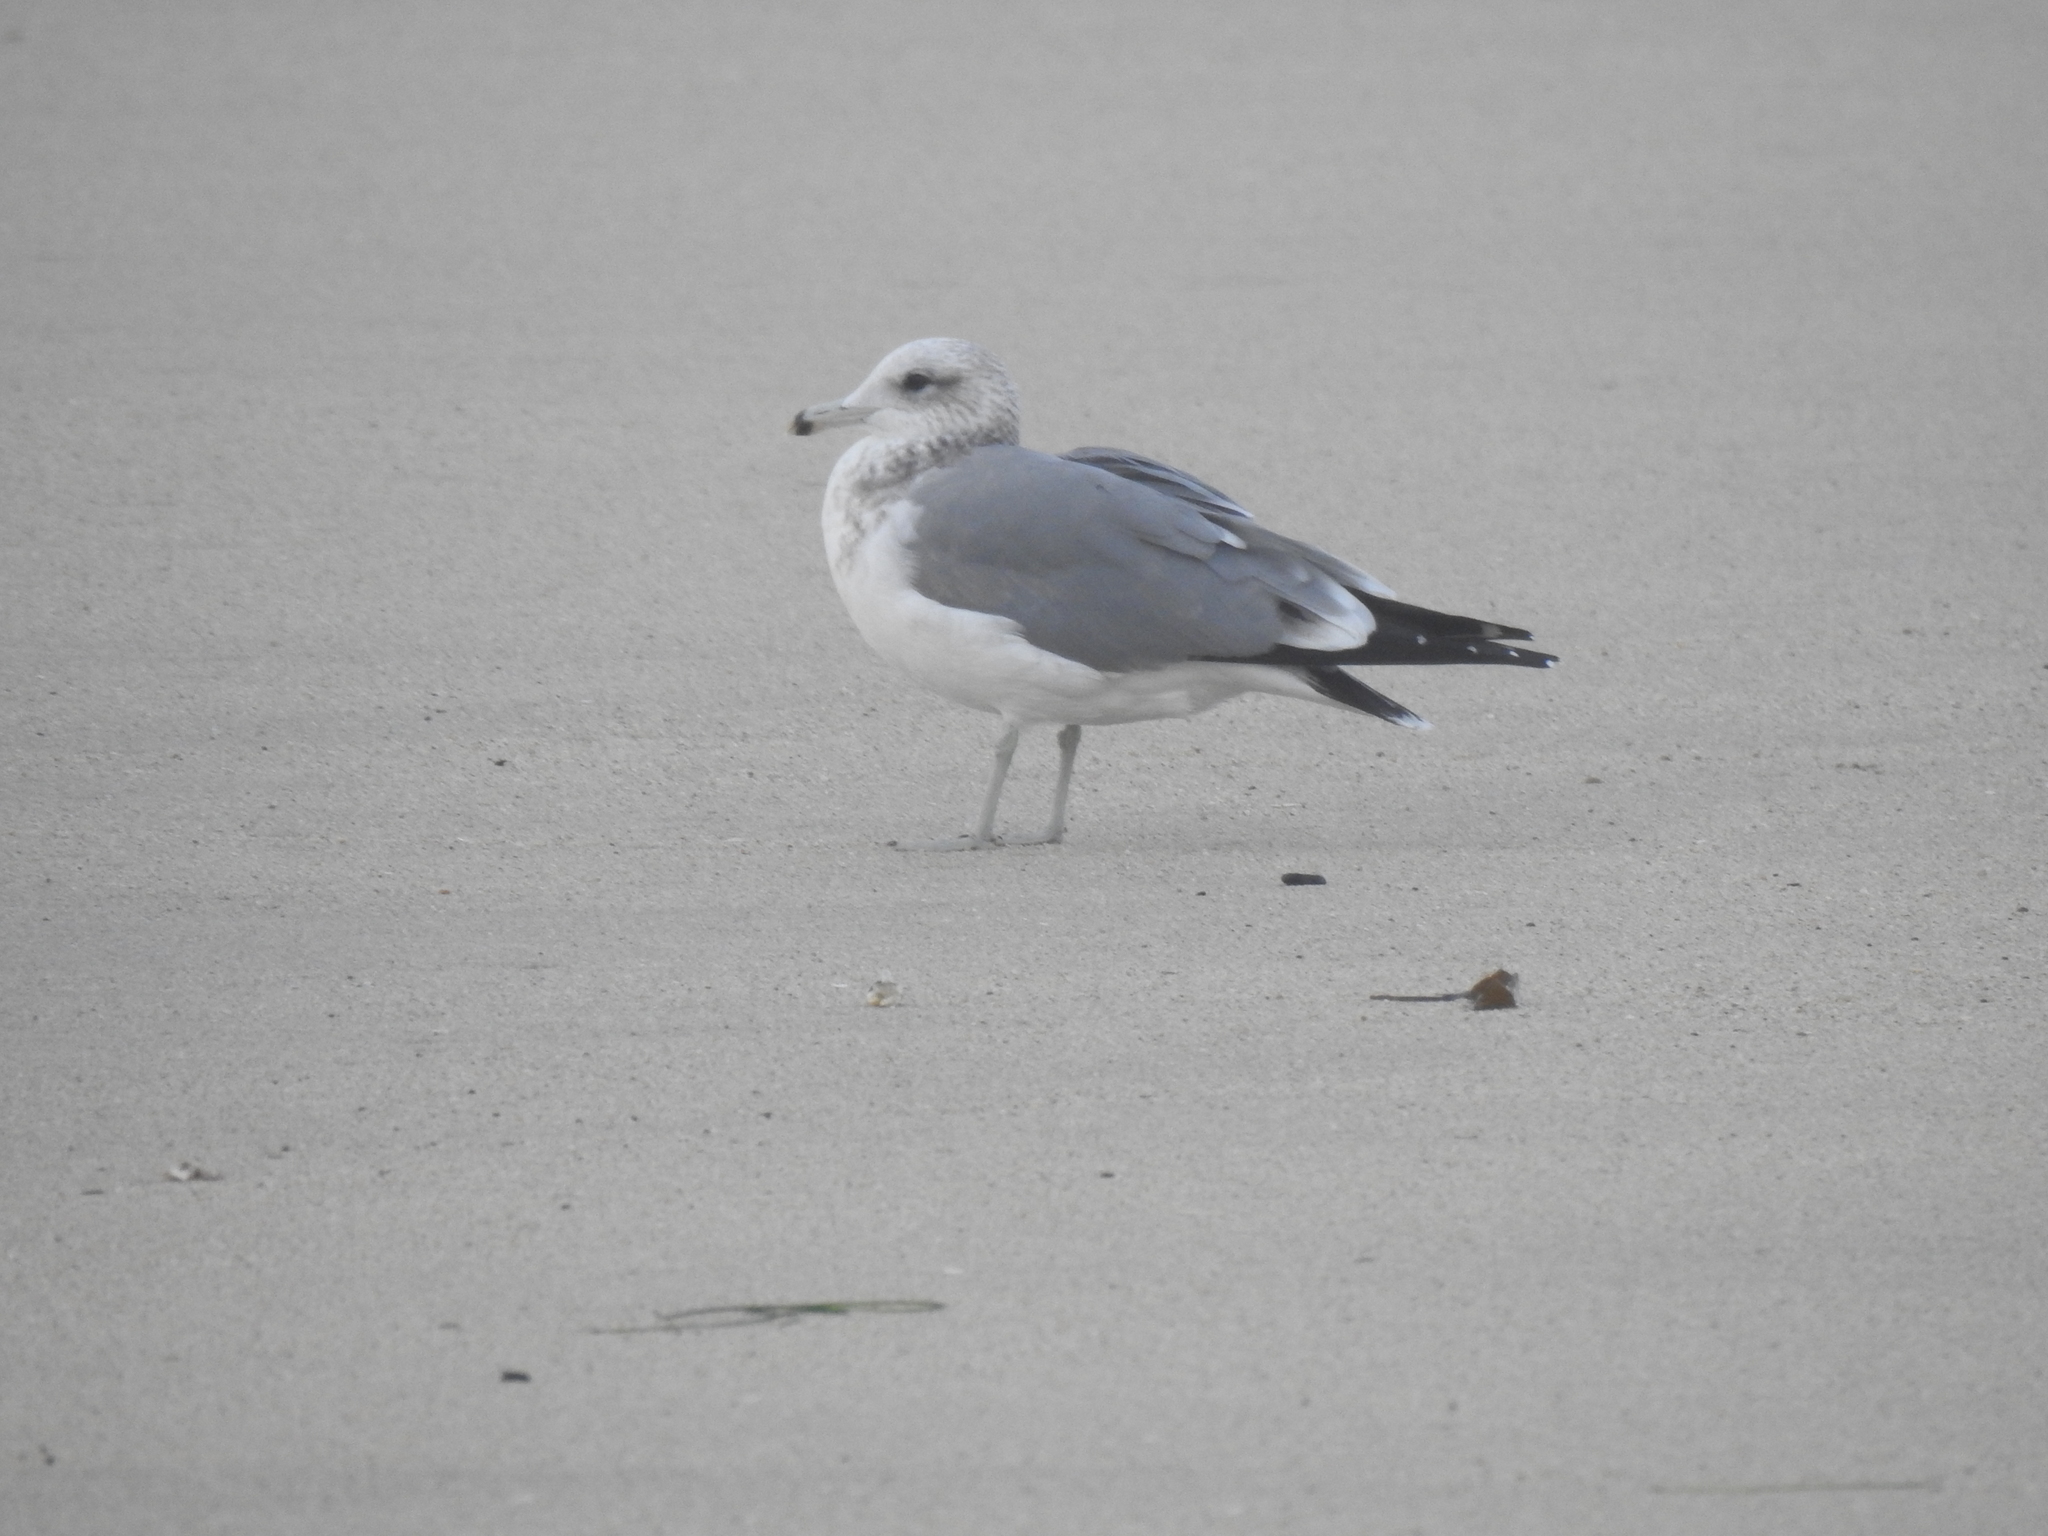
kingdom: Animalia
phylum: Chordata
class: Aves
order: Charadriiformes
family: Laridae
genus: Larus
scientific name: Larus californicus
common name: California gull
